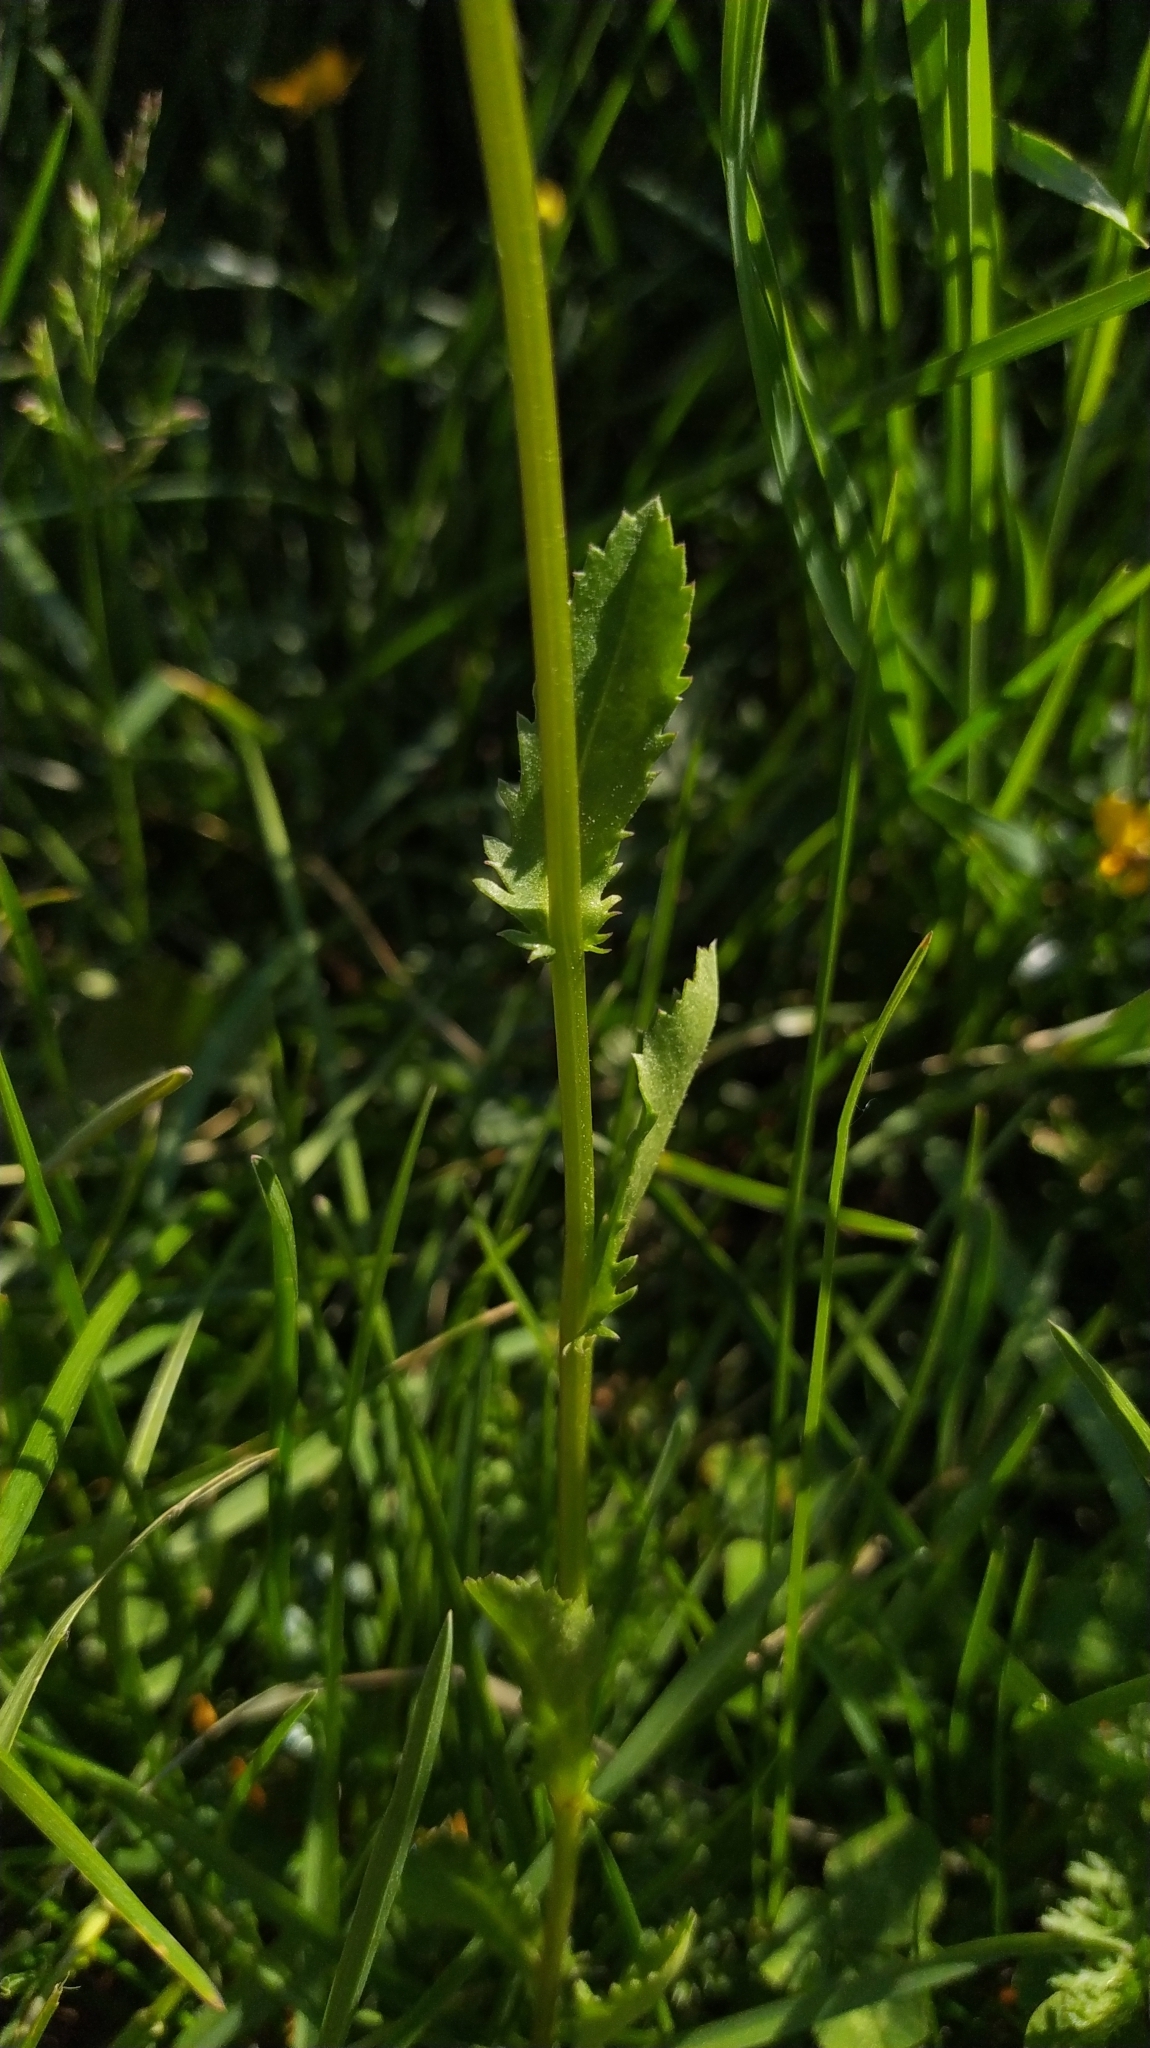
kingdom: Plantae
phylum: Tracheophyta
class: Magnoliopsida
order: Asterales
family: Asteraceae
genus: Leucanthemum
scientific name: Leucanthemum vulgare
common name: Oxeye daisy
